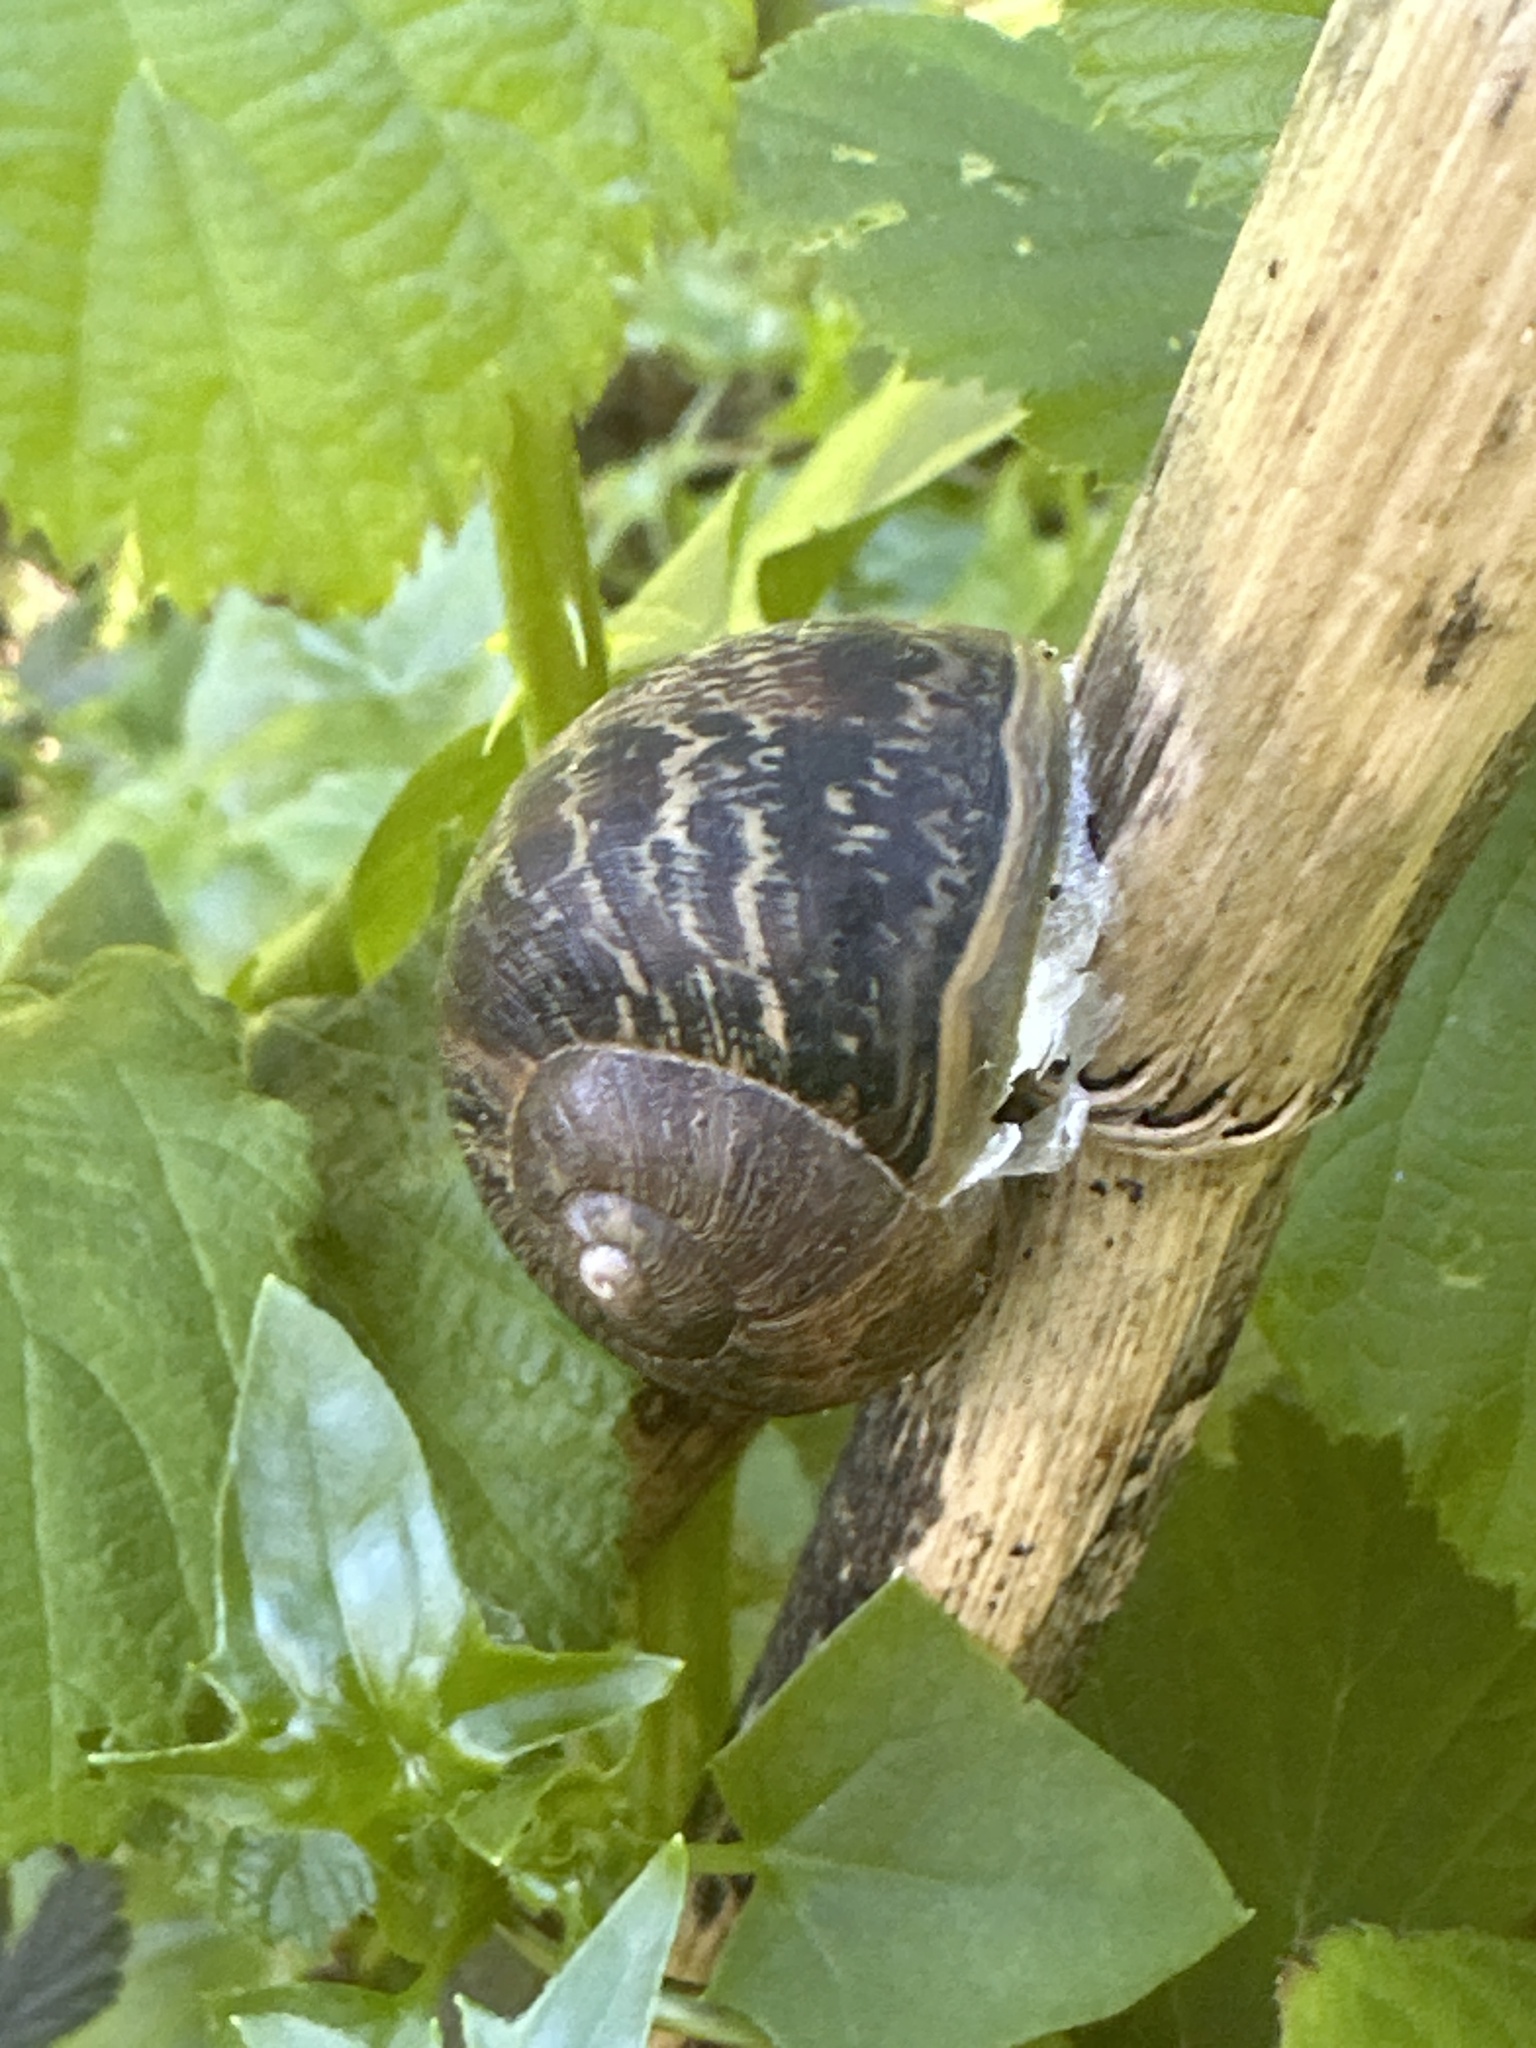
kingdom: Animalia
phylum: Mollusca
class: Gastropoda
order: Stylommatophora
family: Helicidae
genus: Cornu
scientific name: Cornu aspersum
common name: Brown garden snail
